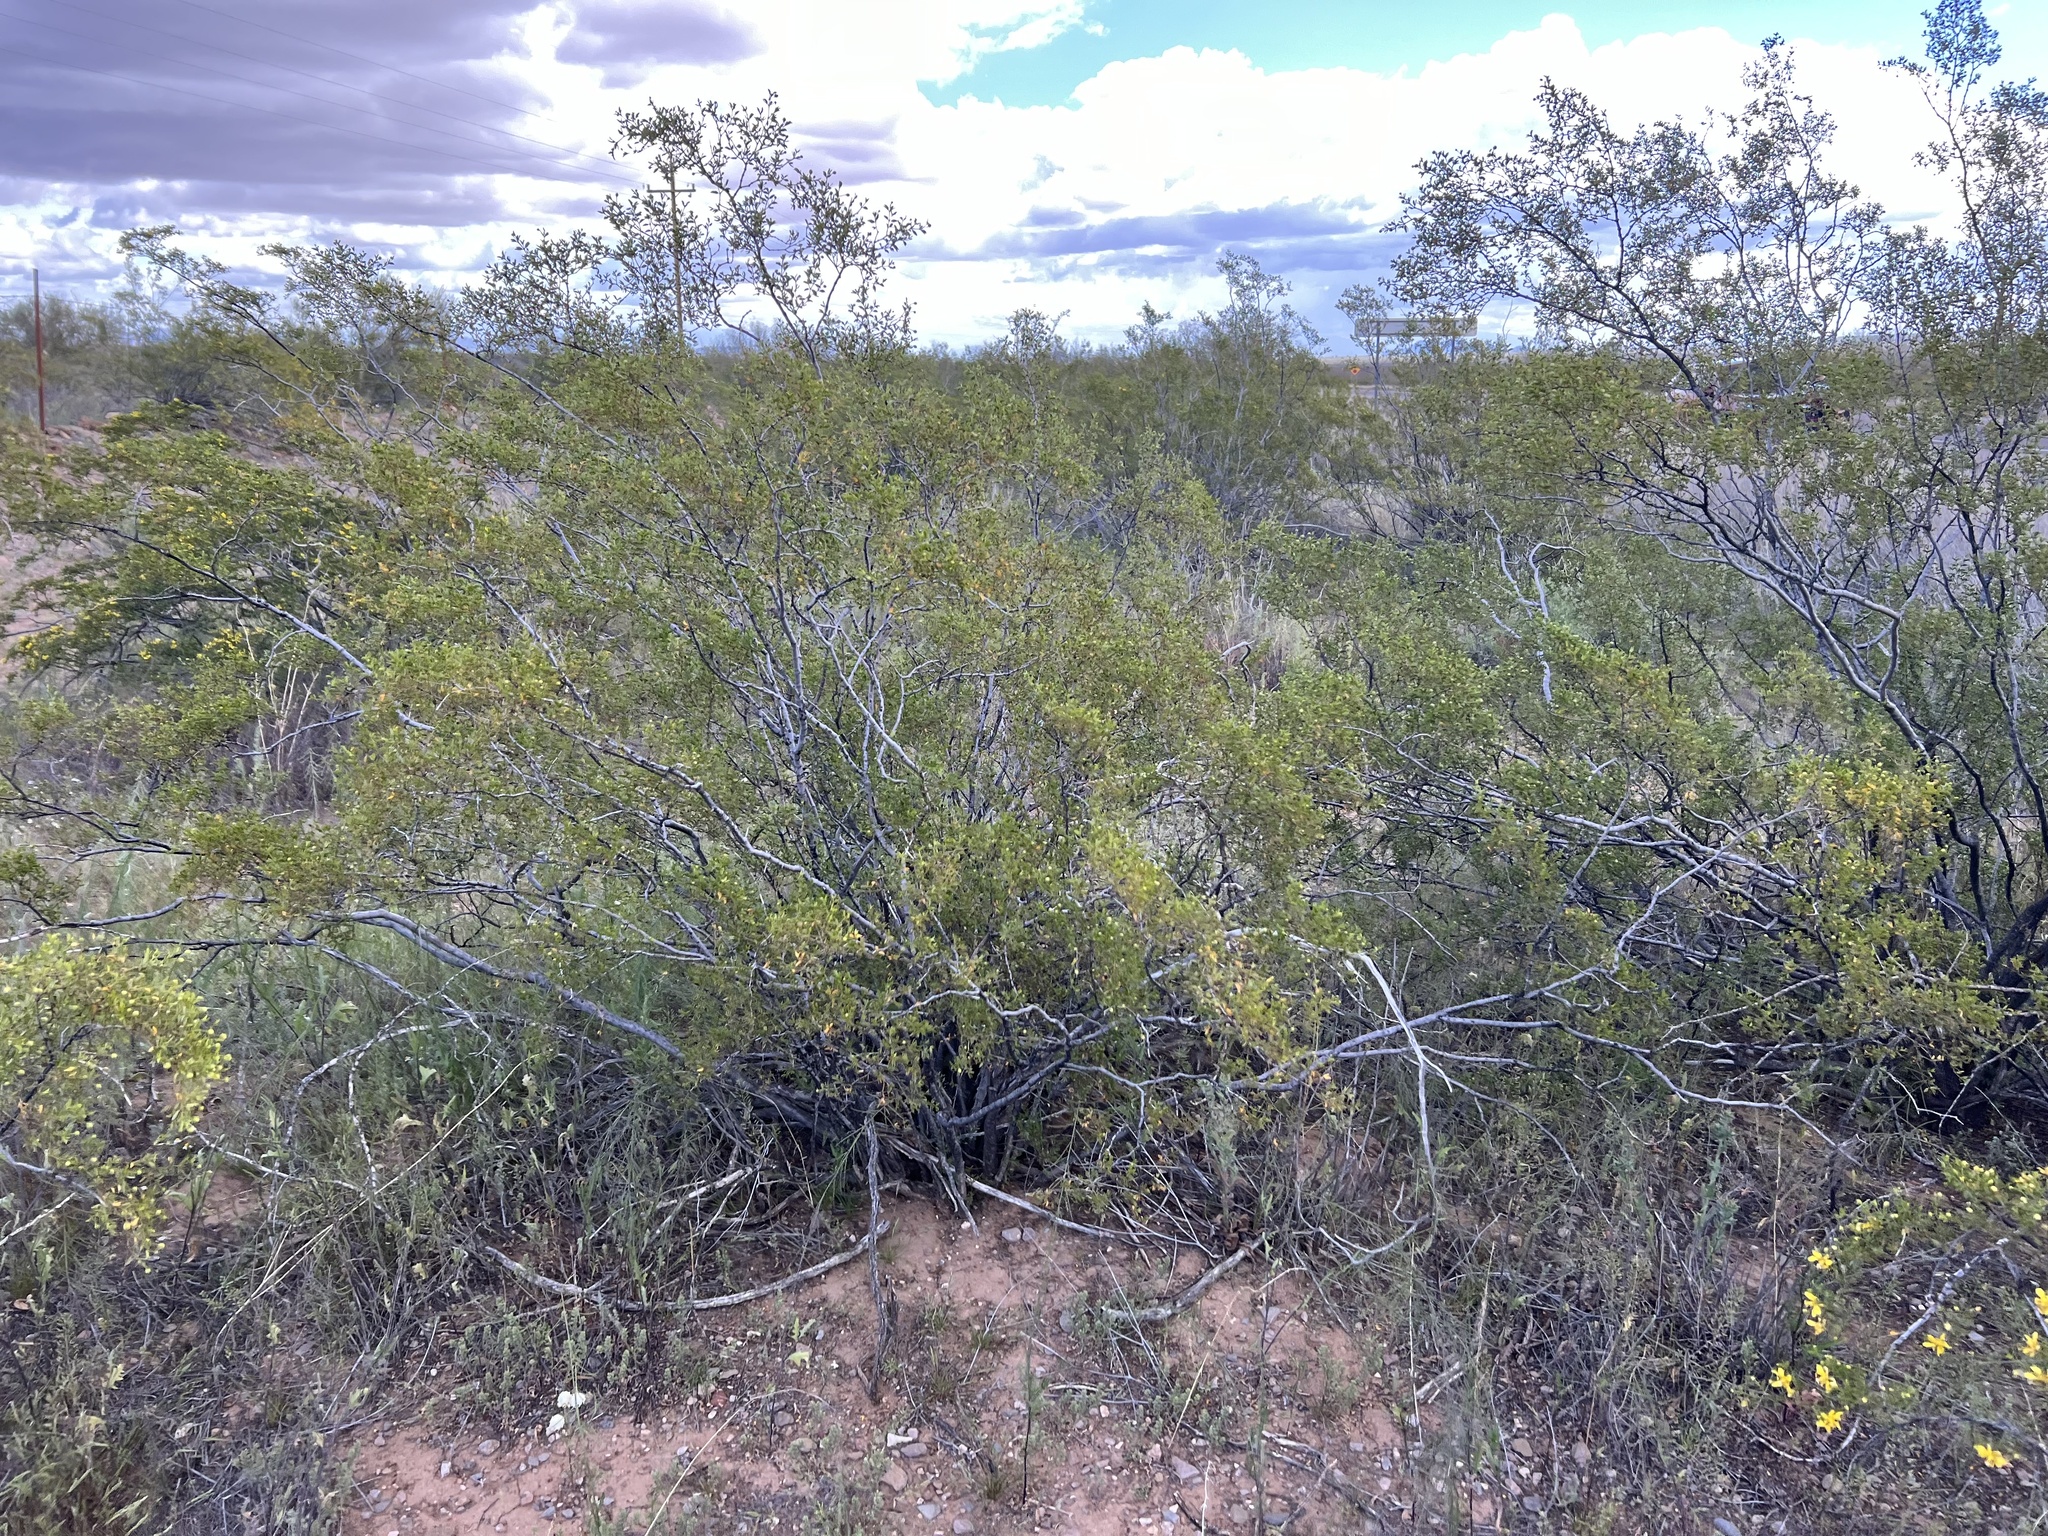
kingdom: Plantae
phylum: Tracheophyta
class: Magnoliopsida
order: Zygophyllales
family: Zygophyllaceae
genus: Larrea
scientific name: Larrea tridentata
